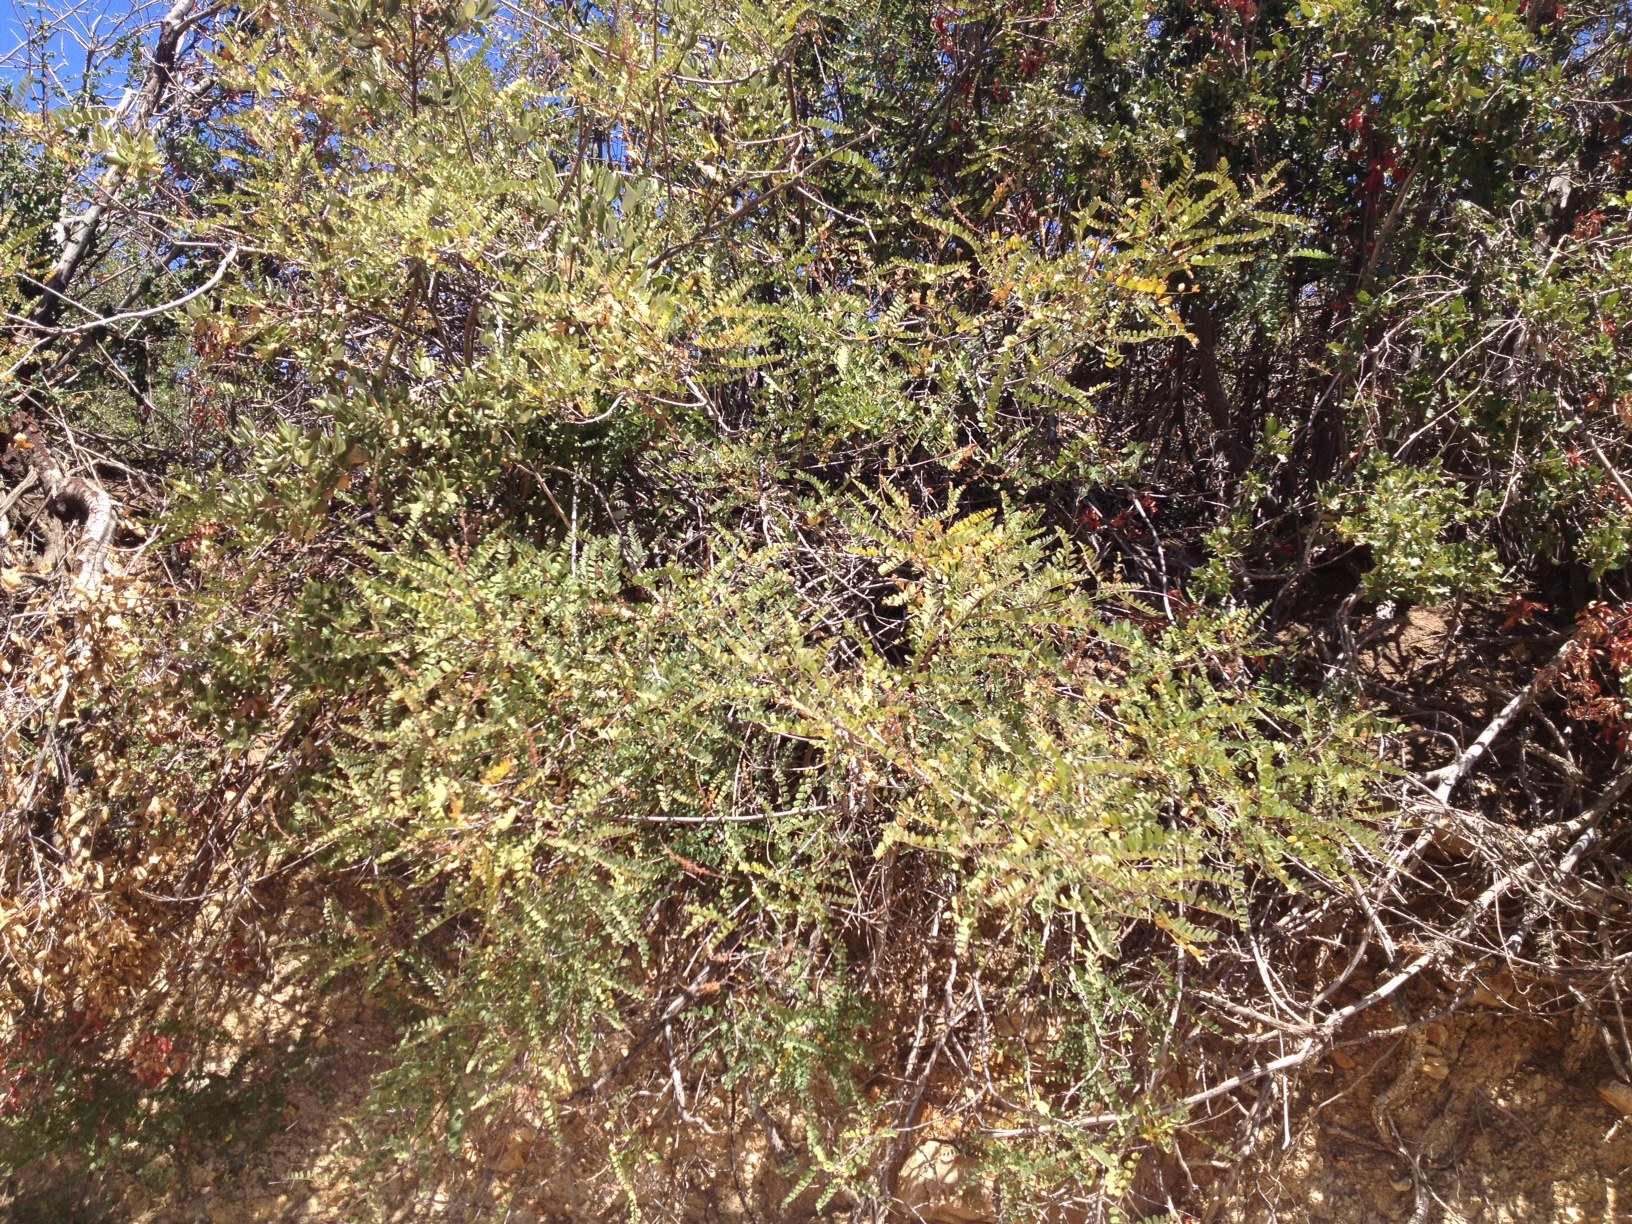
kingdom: Plantae
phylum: Tracheophyta
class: Magnoliopsida
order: Fabales
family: Fabaceae
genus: Amorpha
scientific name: Amorpha californica
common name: California indigobush
